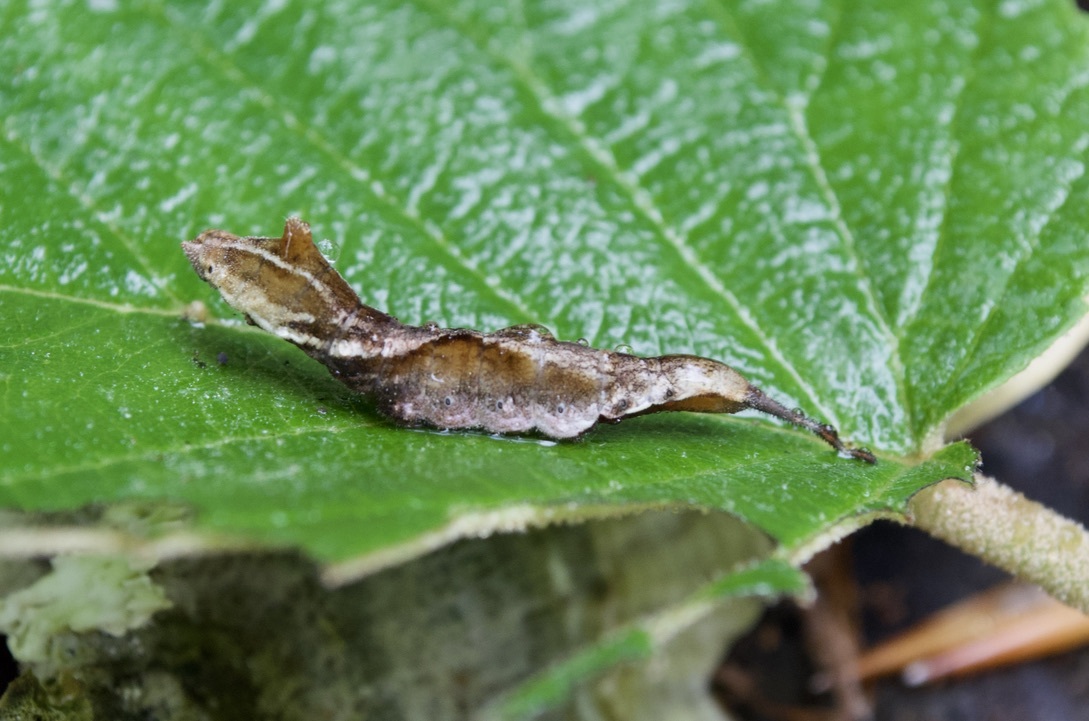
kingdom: Animalia
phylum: Arthropoda
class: Insecta
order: Lepidoptera
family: Drepanidae
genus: Oreta
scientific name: Oreta rosea
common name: Rose hooktip
